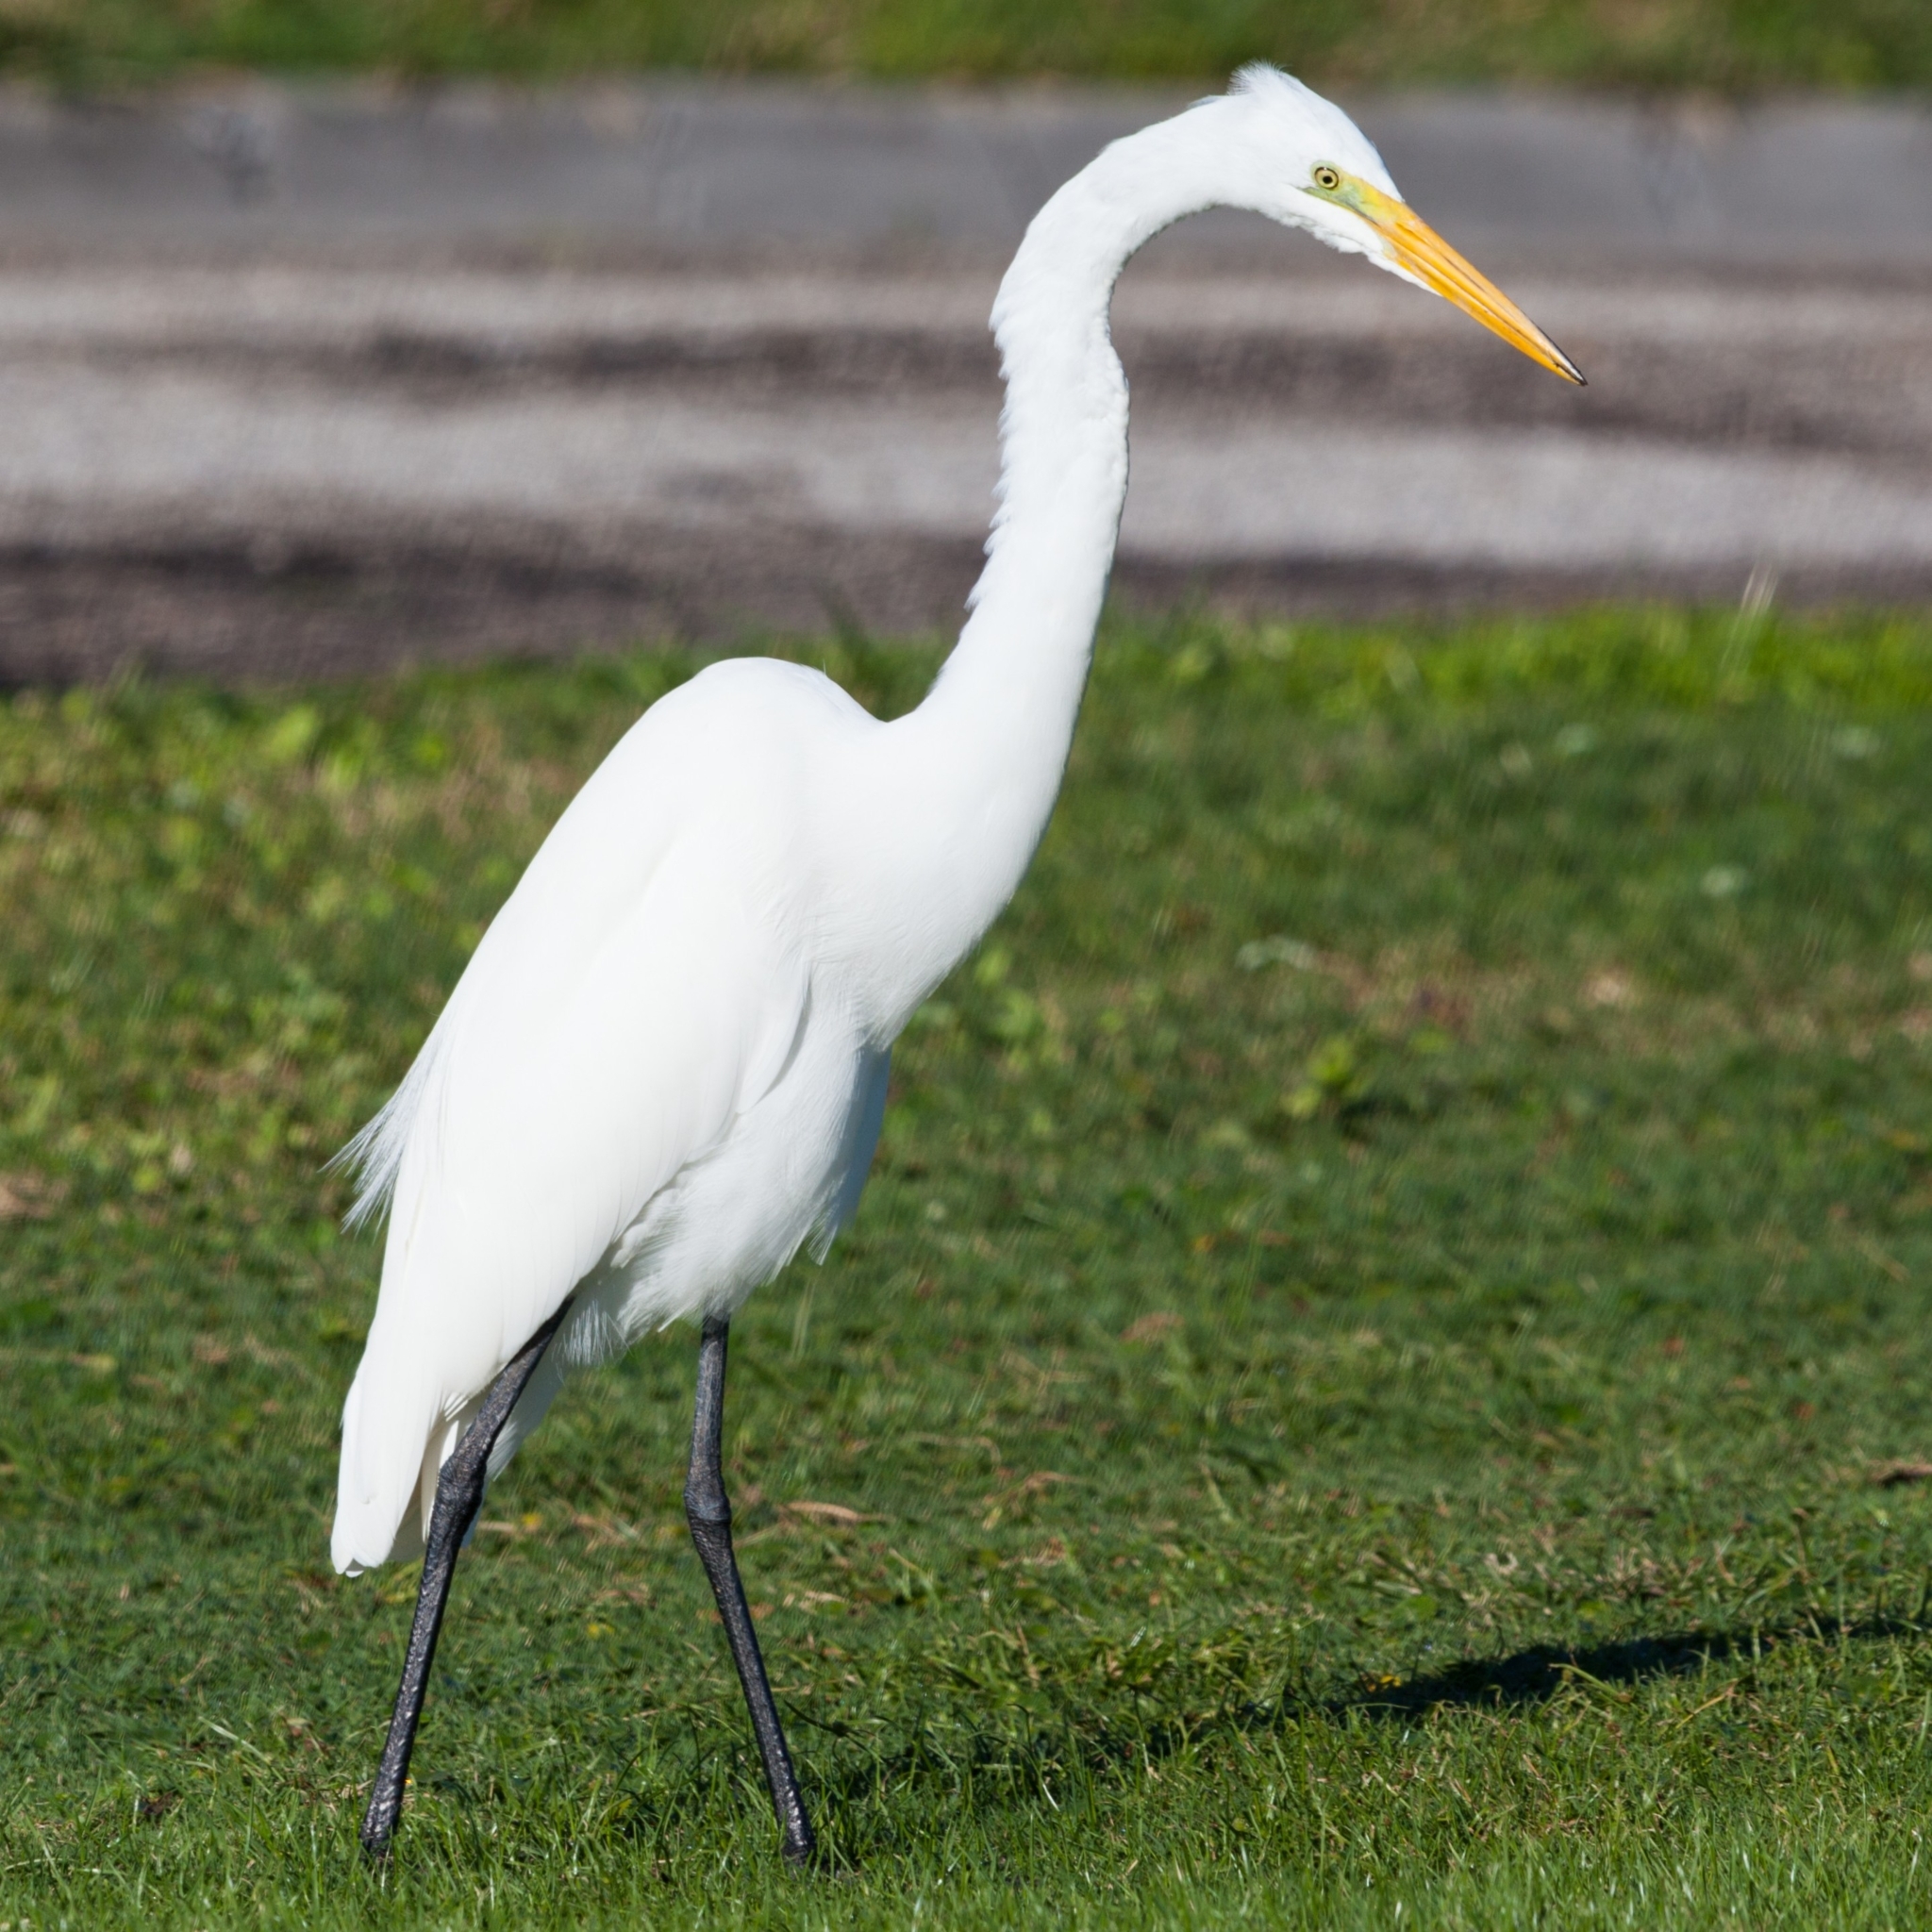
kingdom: Animalia
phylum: Chordata
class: Aves
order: Pelecaniformes
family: Ardeidae
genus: Ardea
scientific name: Ardea alba
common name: Great egret
